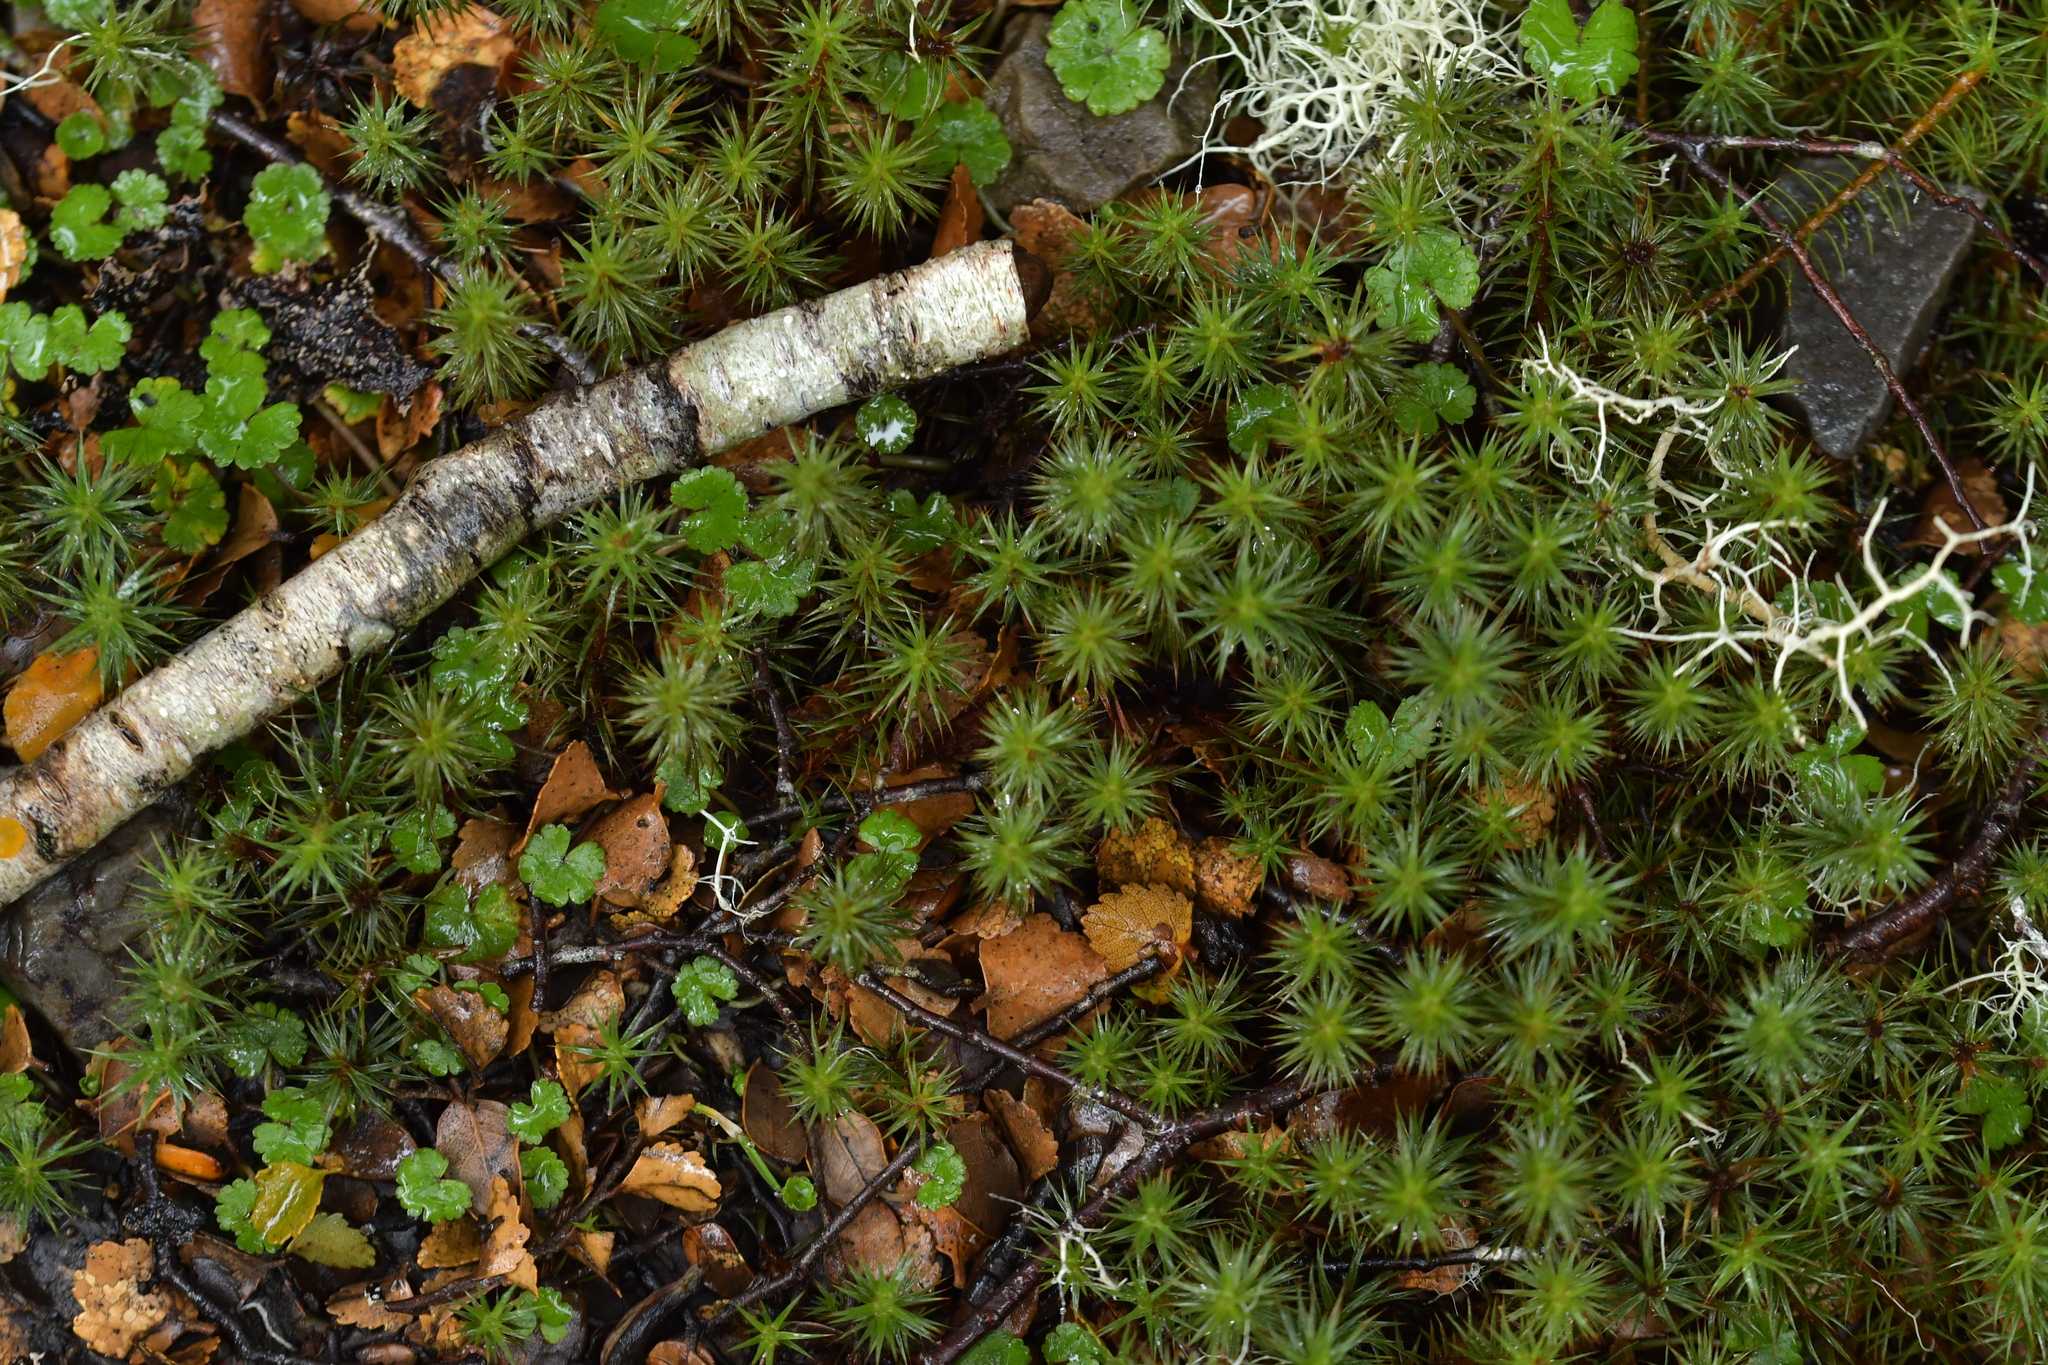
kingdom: Plantae
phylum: Bryophyta
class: Polytrichopsida
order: Polytrichales
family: Polytrichaceae
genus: Polytrichum
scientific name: Polytrichum juniperinum
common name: Juniper haircap moss
